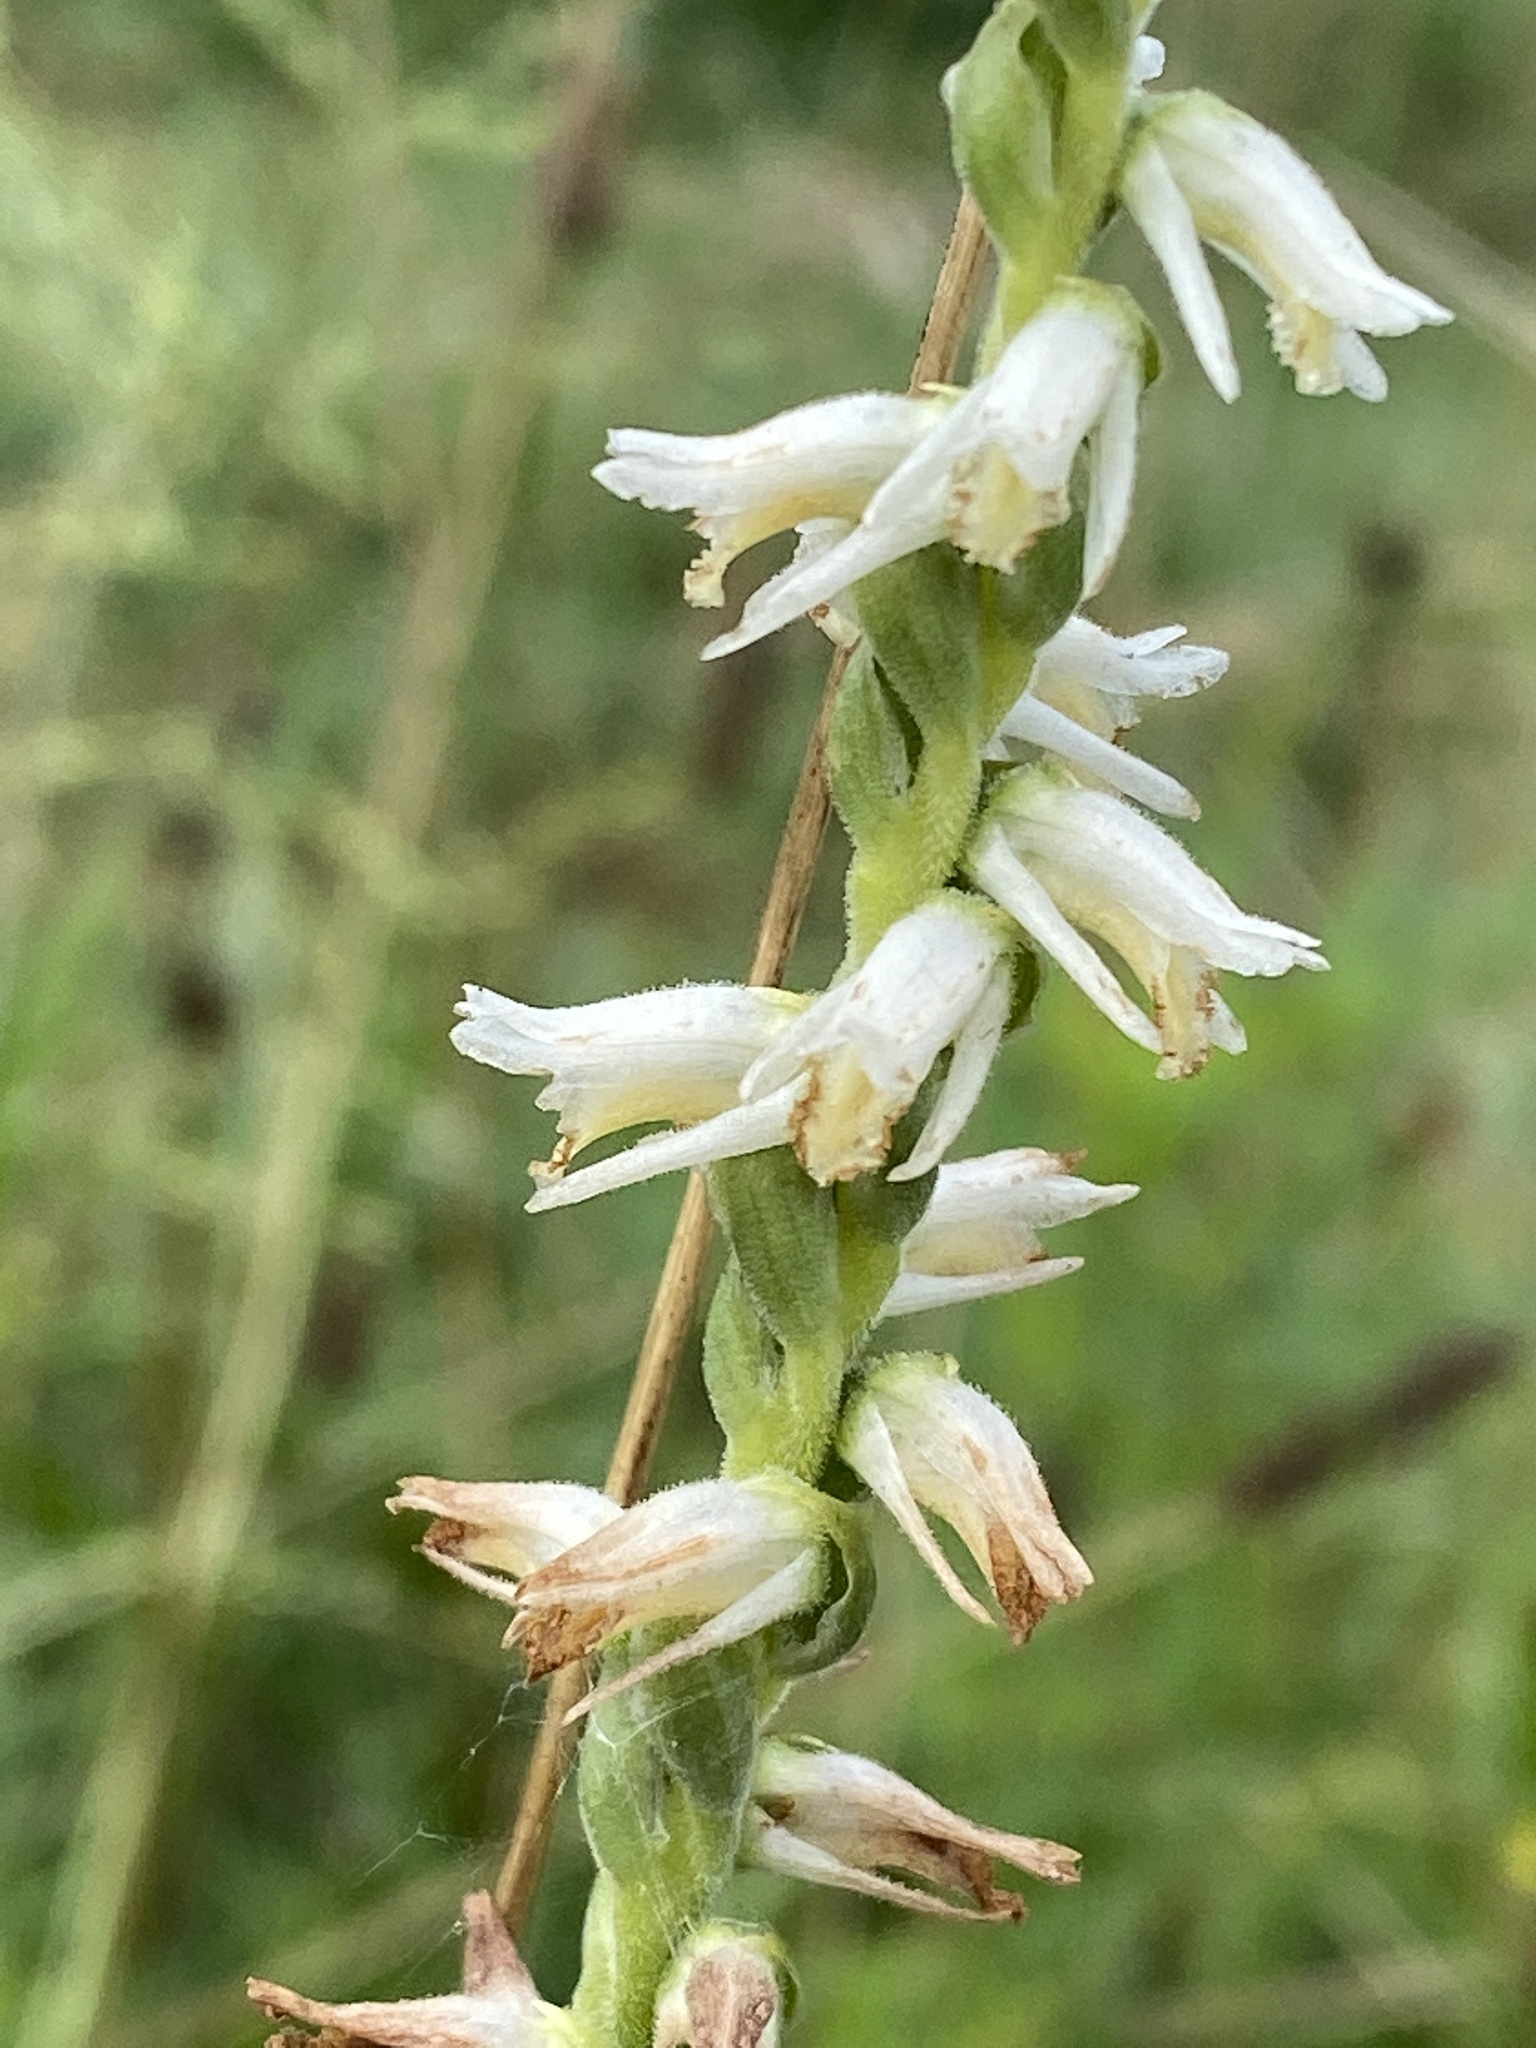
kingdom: Plantae
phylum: Tracheophyta
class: Liliopsida
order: Asparagales
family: Orchidaceae
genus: Spiranthes
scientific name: Spiranthes vernalis
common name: Spring ladies'-tresses
